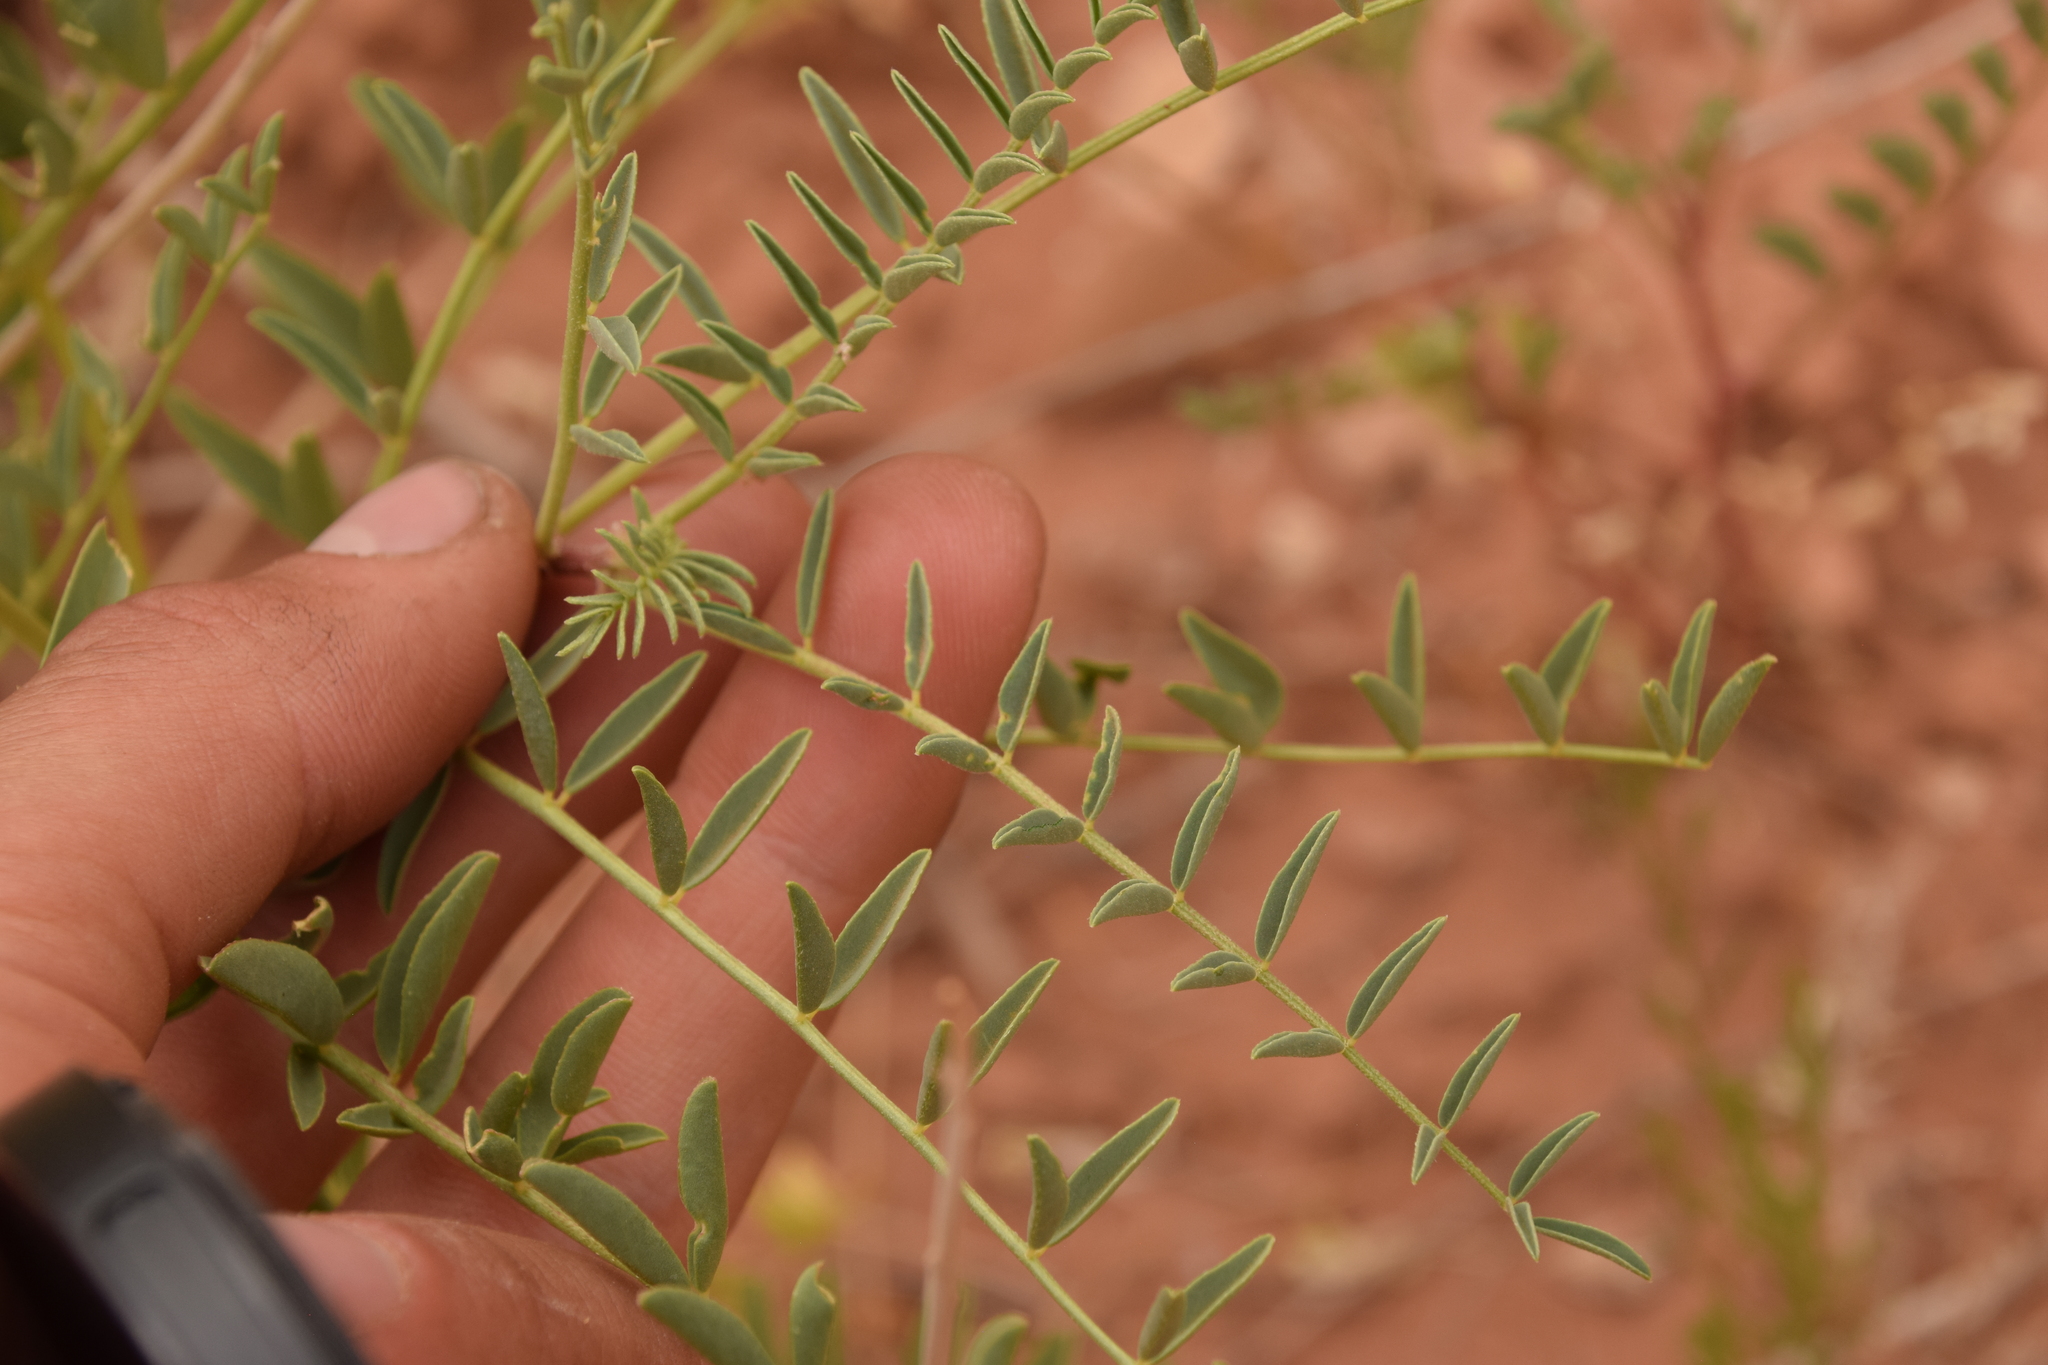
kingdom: Plantae
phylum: Tracheophyta
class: Magnoliopsida
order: Fabales
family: Fabaceae
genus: Astragalus
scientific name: Astragalus praelongus
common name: Stinking milk-vetch
